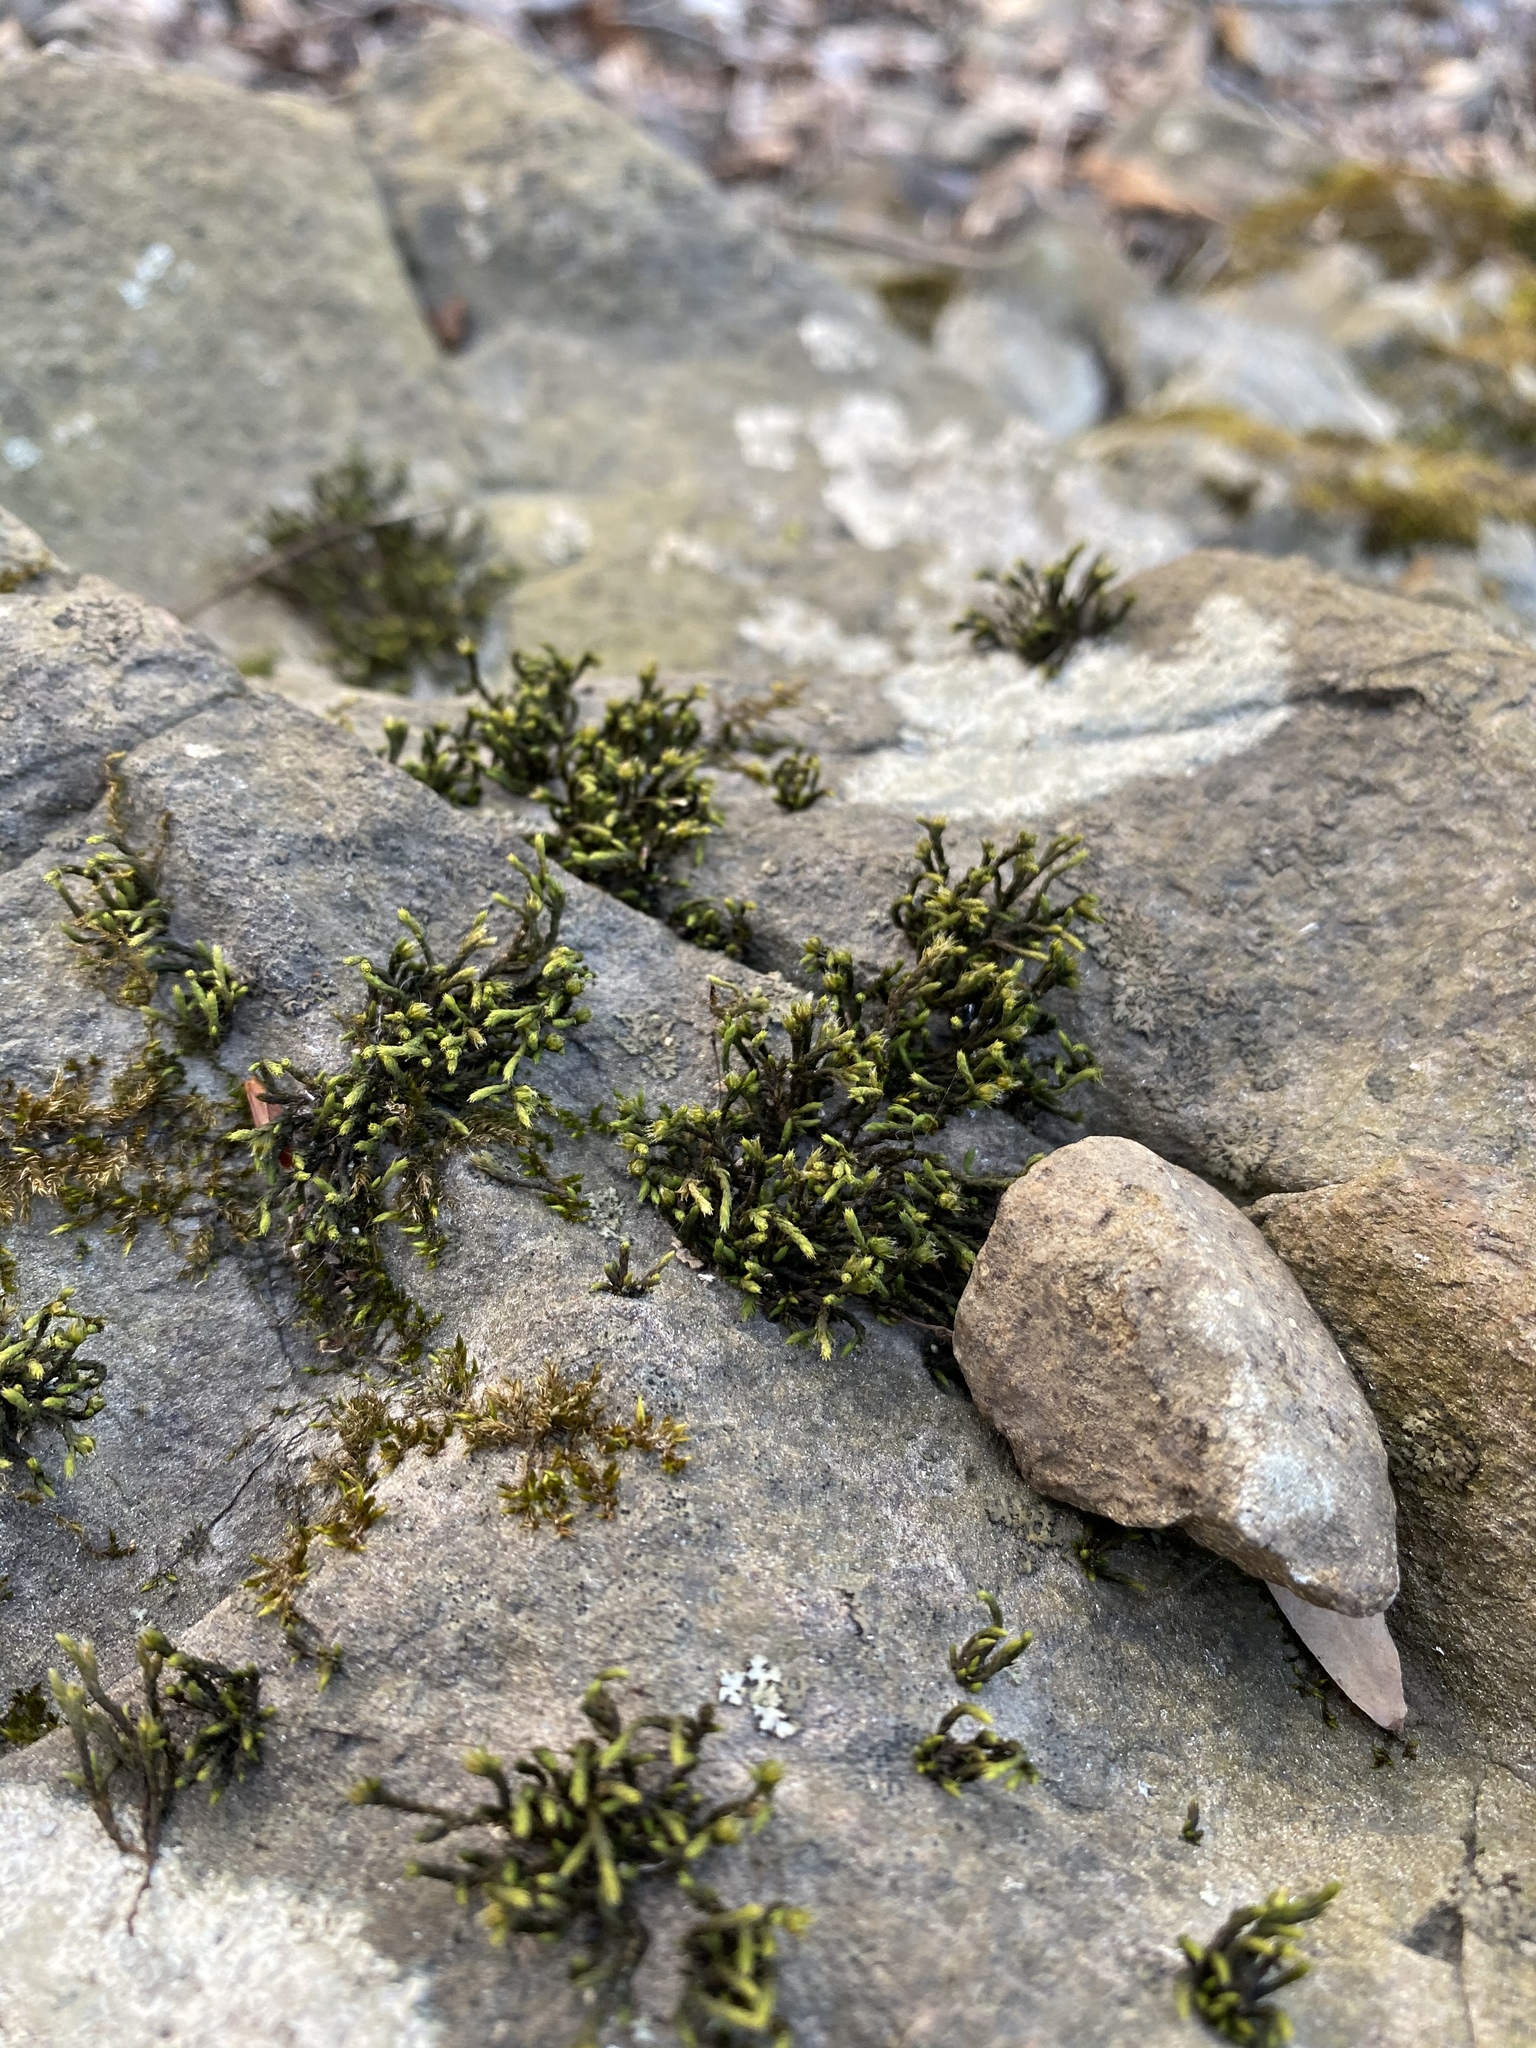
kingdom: Plantae
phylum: Bryophyta
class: Bryopsida
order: Hedwigiales
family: Hedwigiaceae
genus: Hedwigia
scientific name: Hedwigia ciliata
